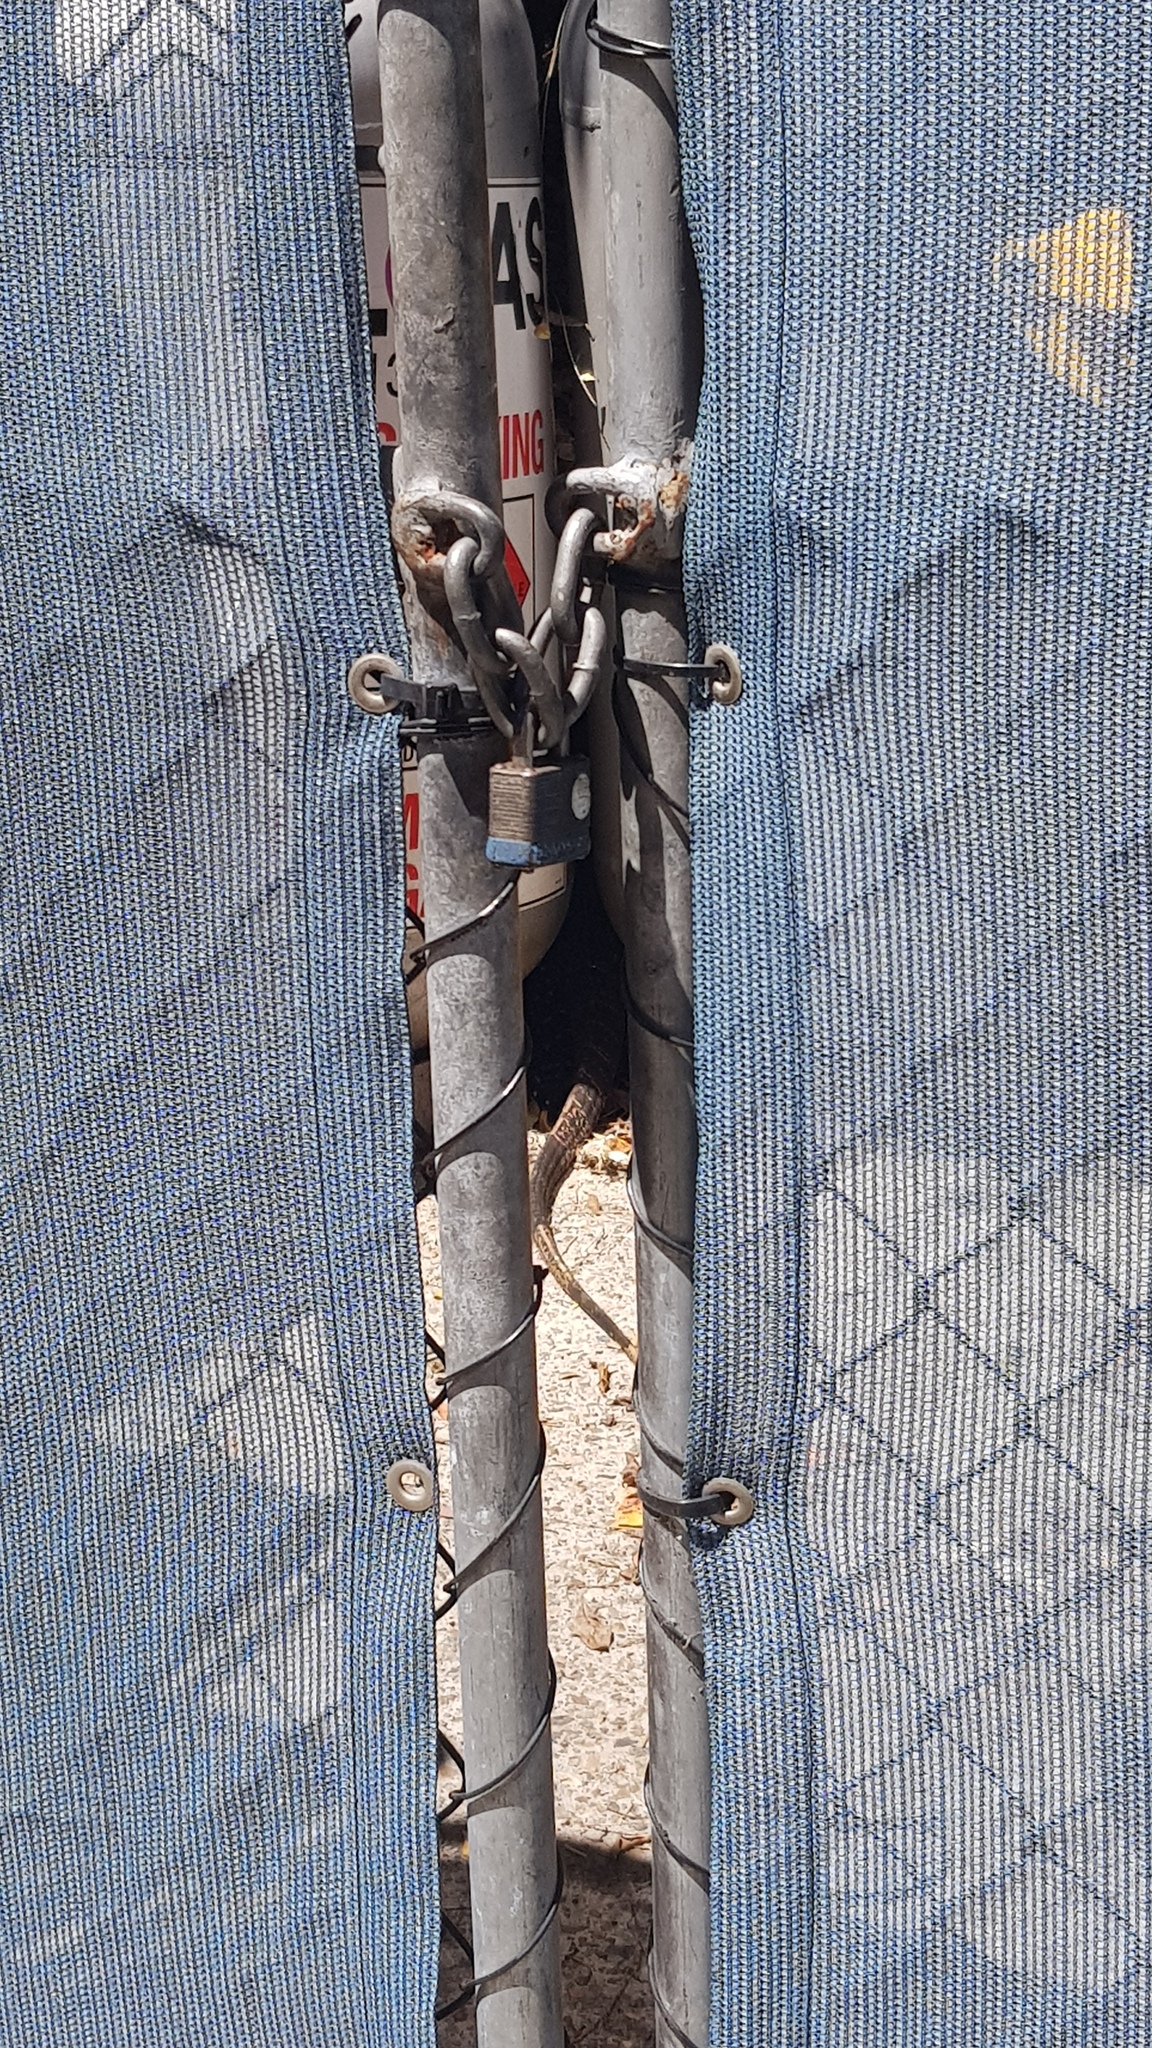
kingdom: Animalia
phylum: Chordata
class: Squamata
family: Varanidae
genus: Varanus
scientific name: Varanus varius
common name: Lace monitor
